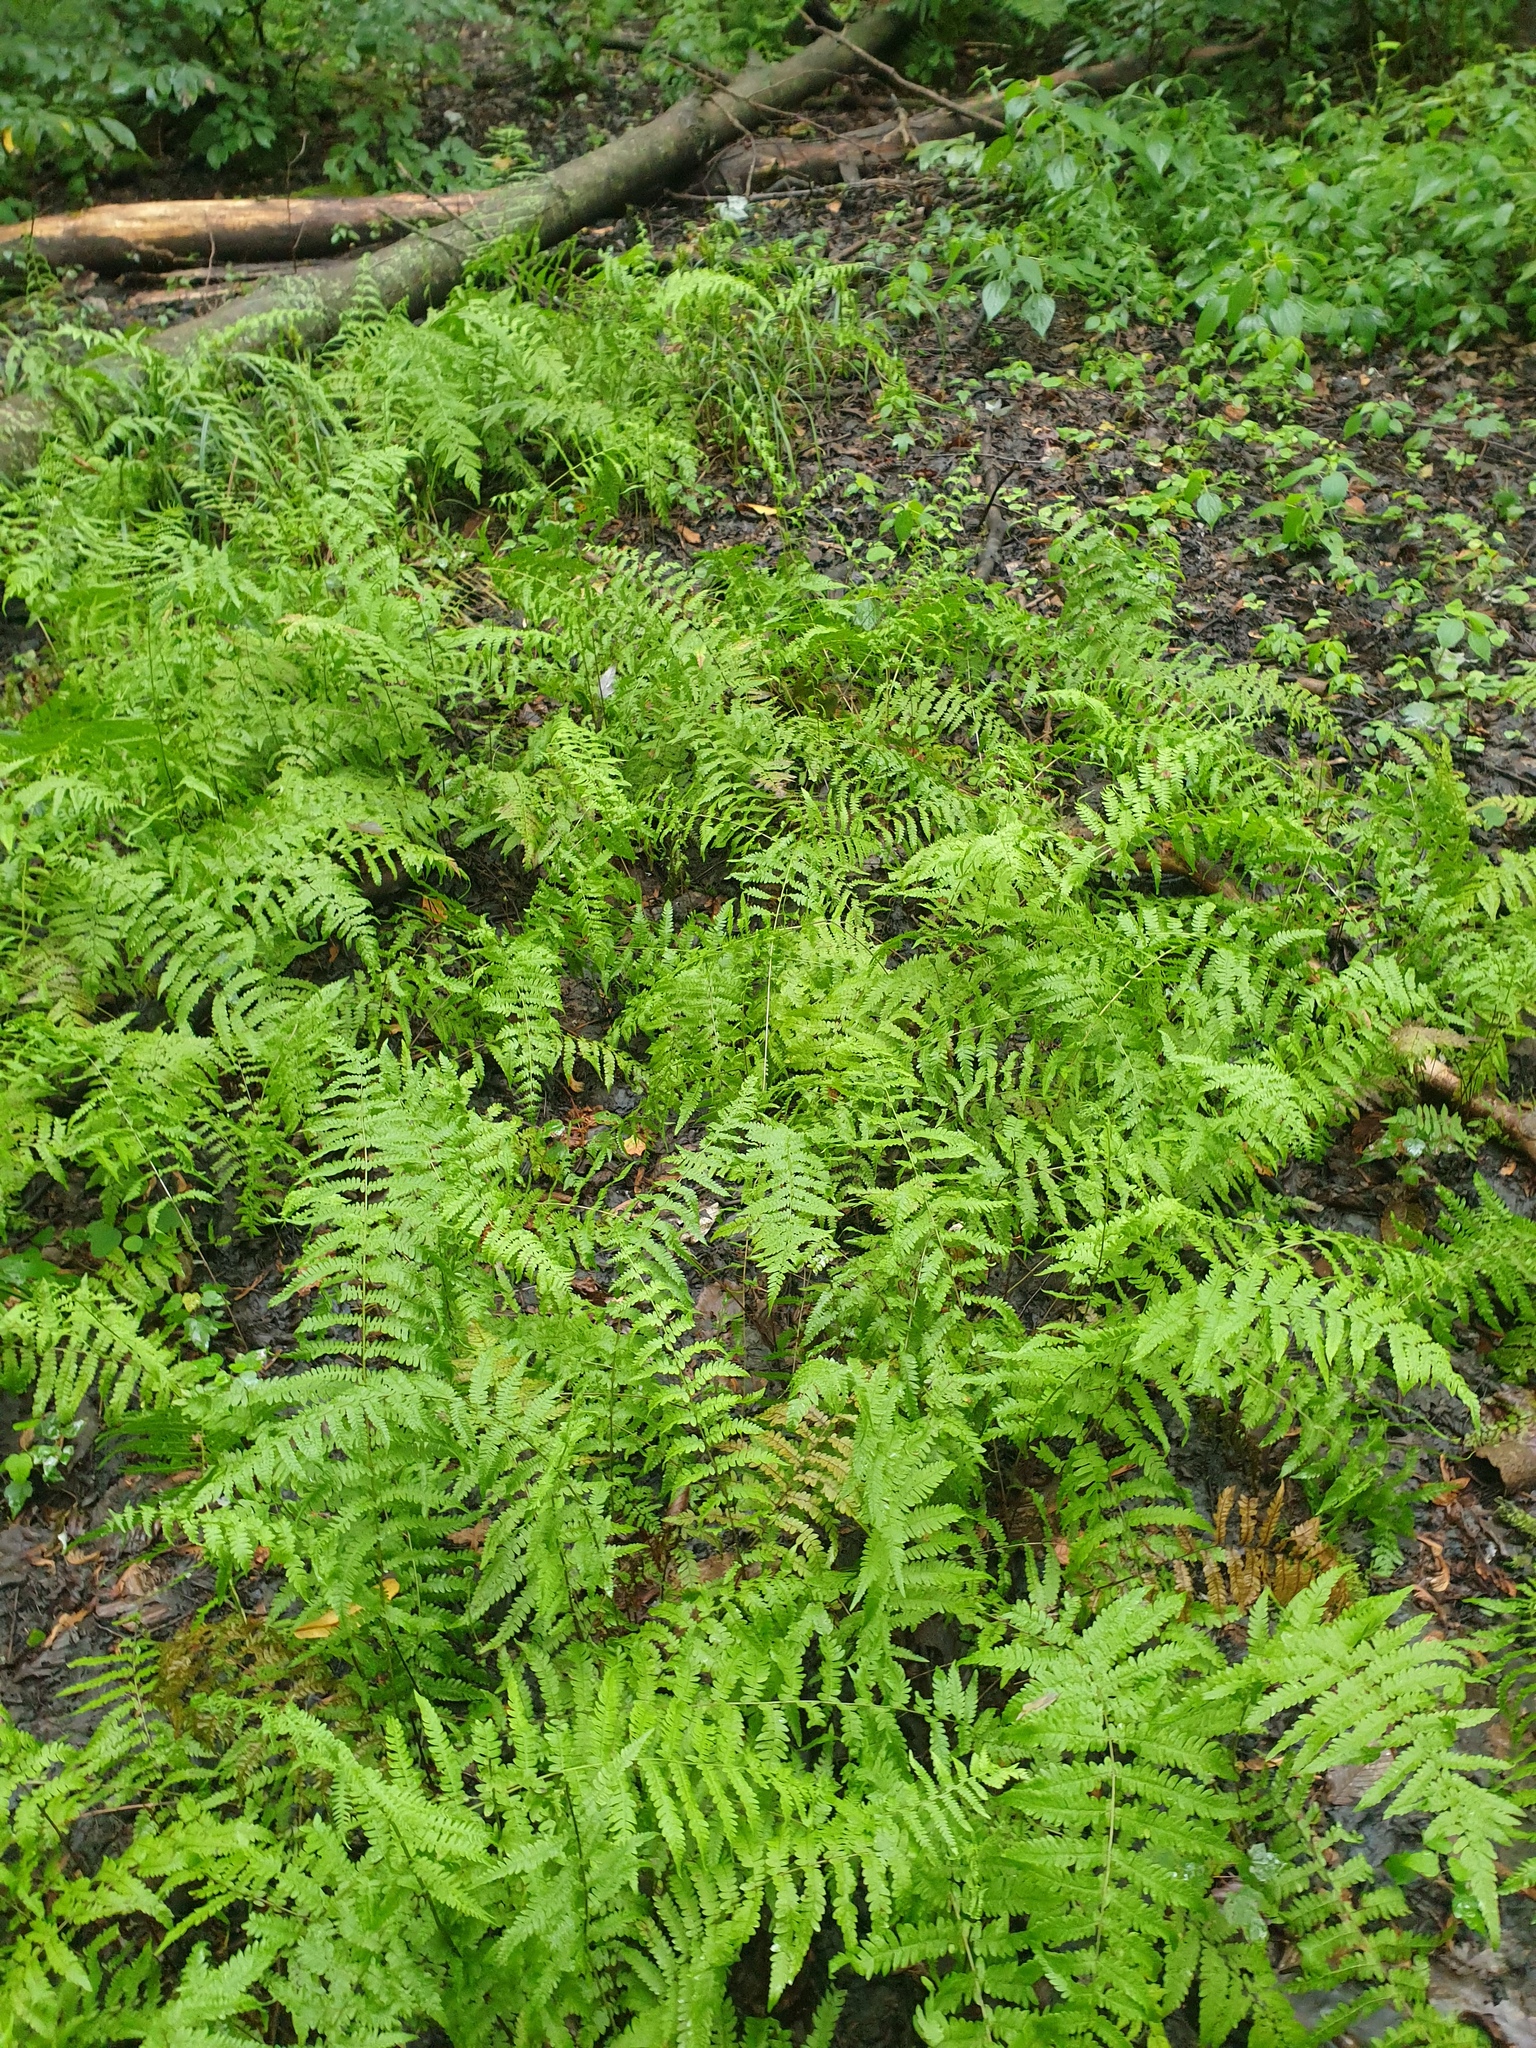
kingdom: Plantae
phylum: Tracheophyta
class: Polypodiopsida
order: Polypodiales
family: Thelypteridaceae
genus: Thelypteris
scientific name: Thelypteris palustris
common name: Marsh fern
